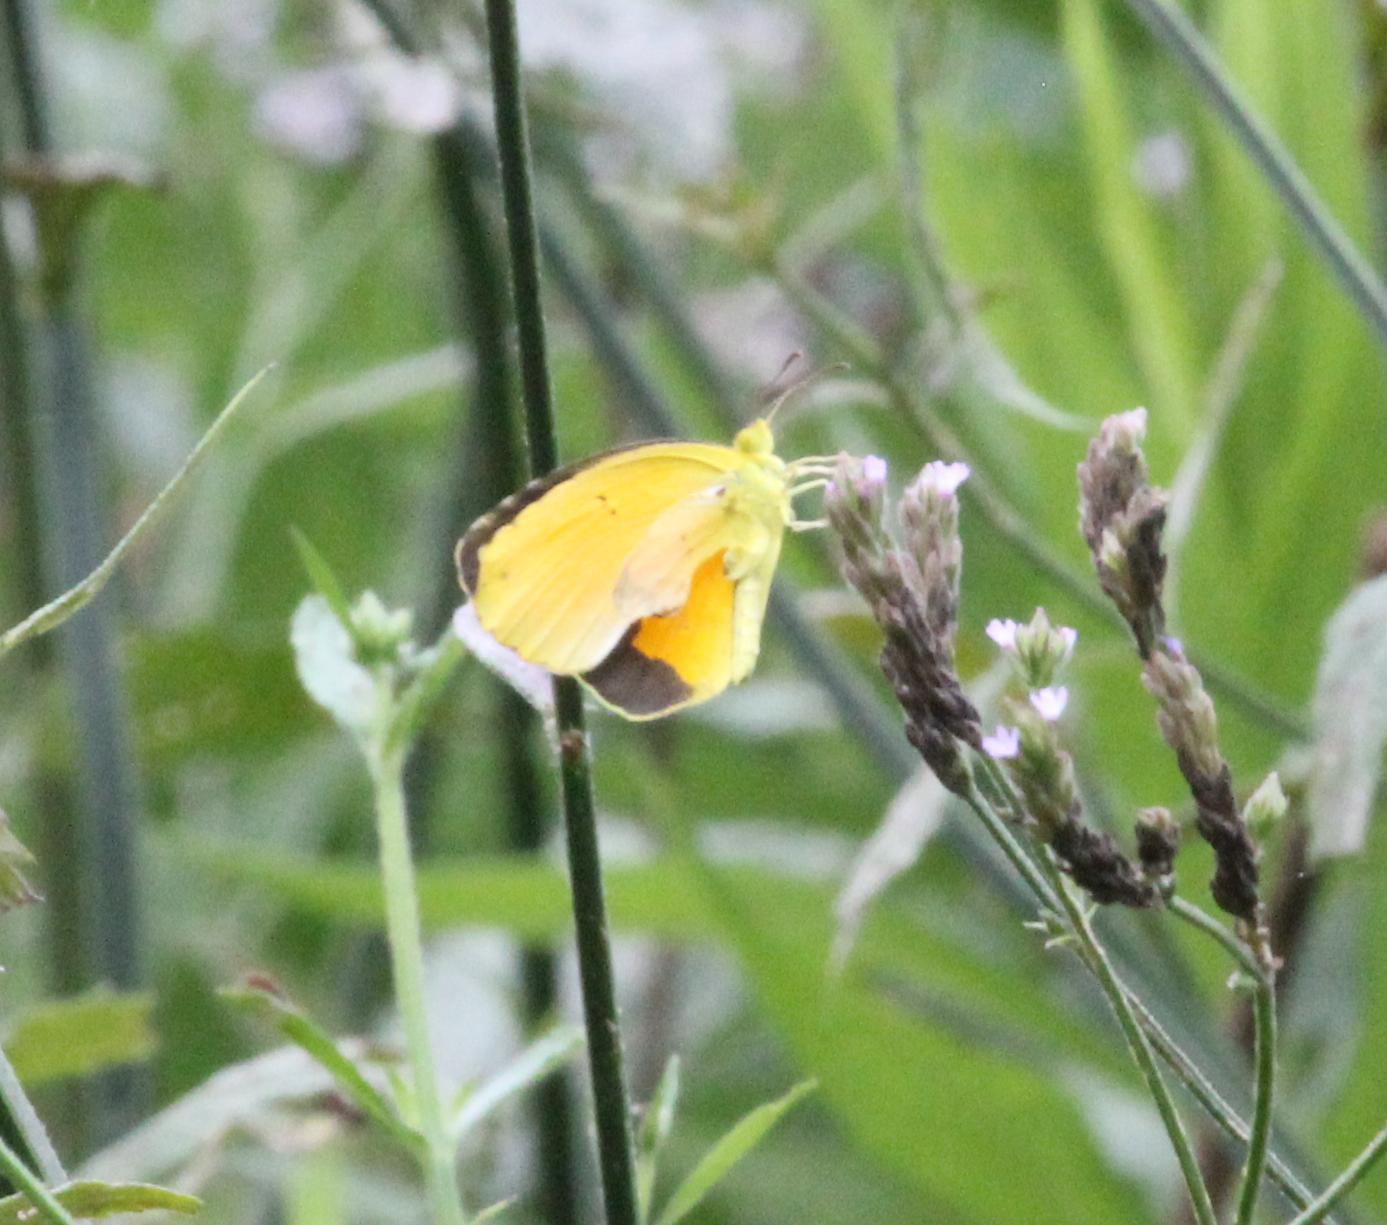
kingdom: Animalia
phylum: Arthropoda
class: Insecta
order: Lepidoptera
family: Pieridae
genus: Abaeis
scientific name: Abaeis nicippe
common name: Sleepy orange
